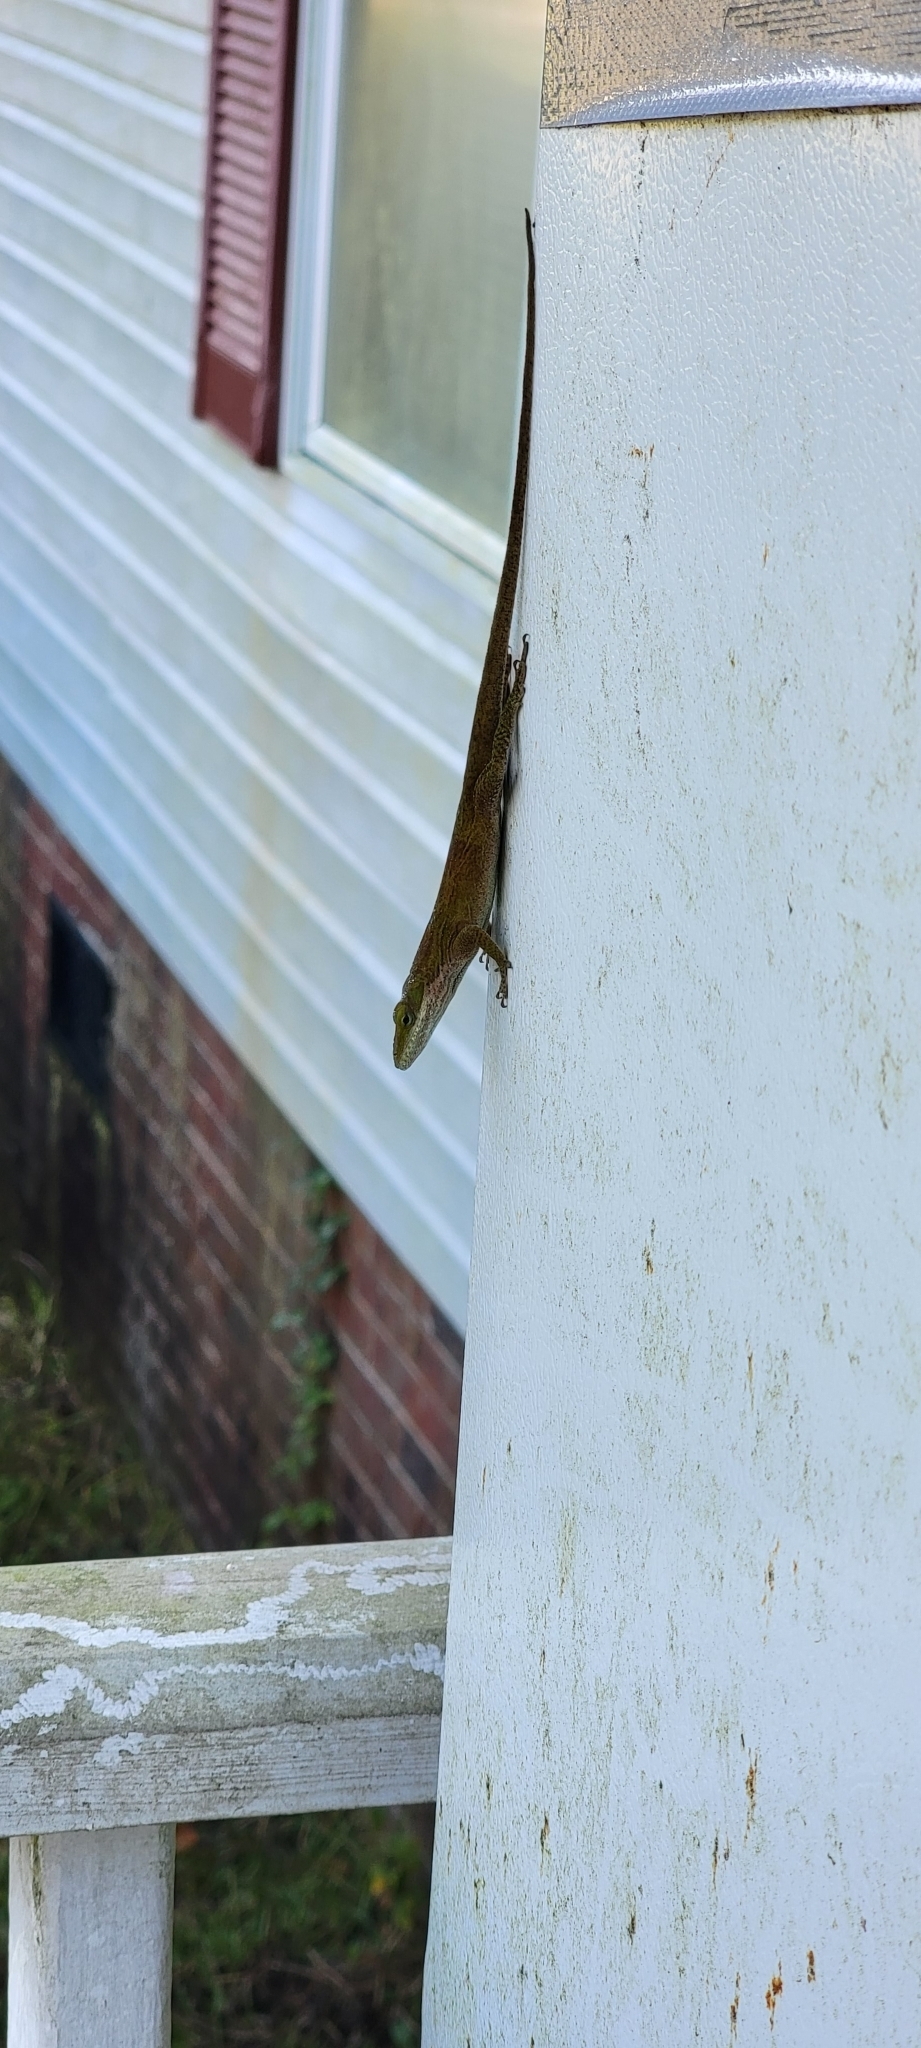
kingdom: Animalia
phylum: Chordata
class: Squamata
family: Dactyloidae
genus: Anolis
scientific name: Anolis carolinensis
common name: Green anole
